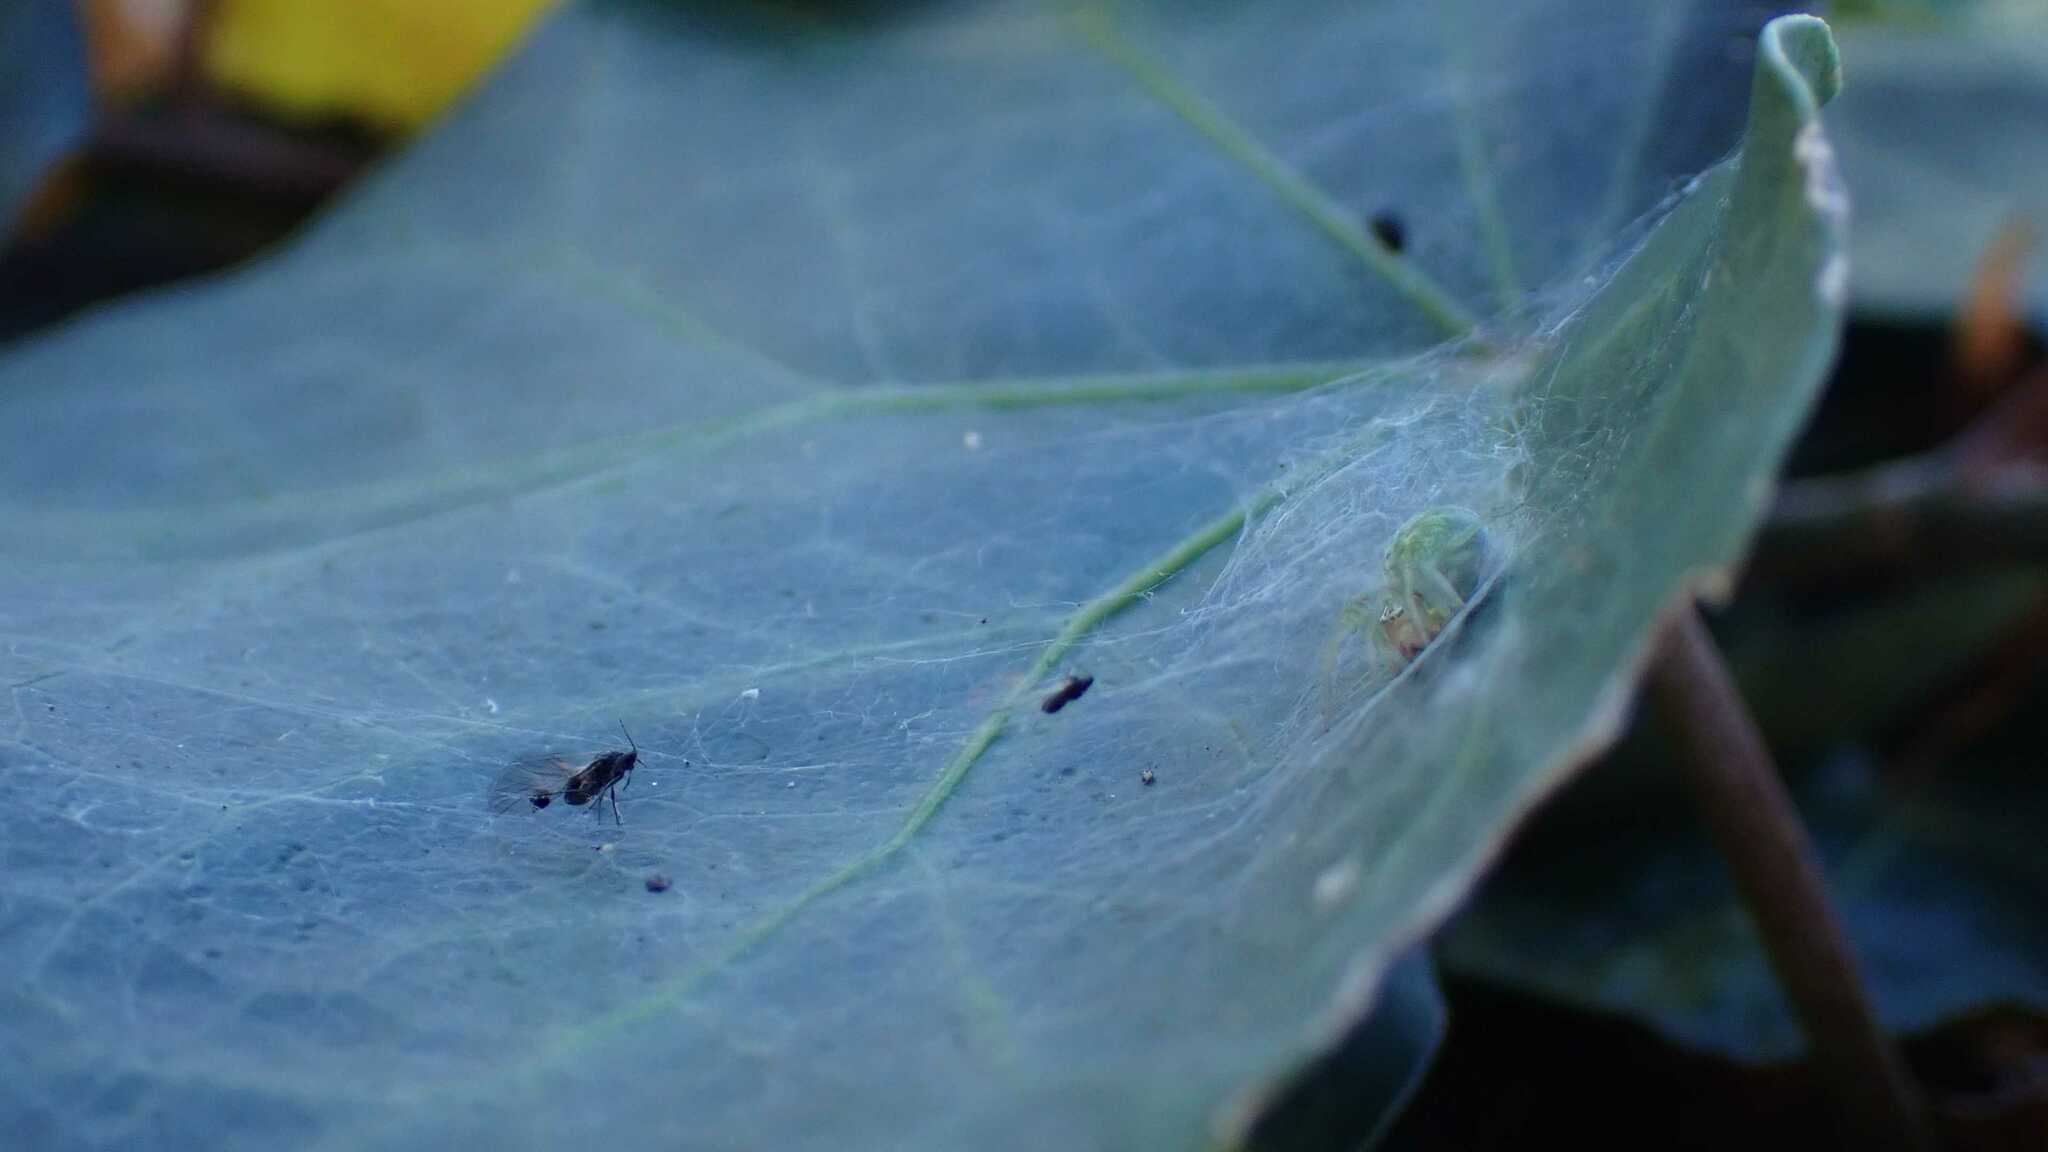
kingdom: Animalia
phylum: Arthropoda
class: Arachnida
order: Araneae
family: Dictynidae
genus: Nigma
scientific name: Nigma walckenaeri
